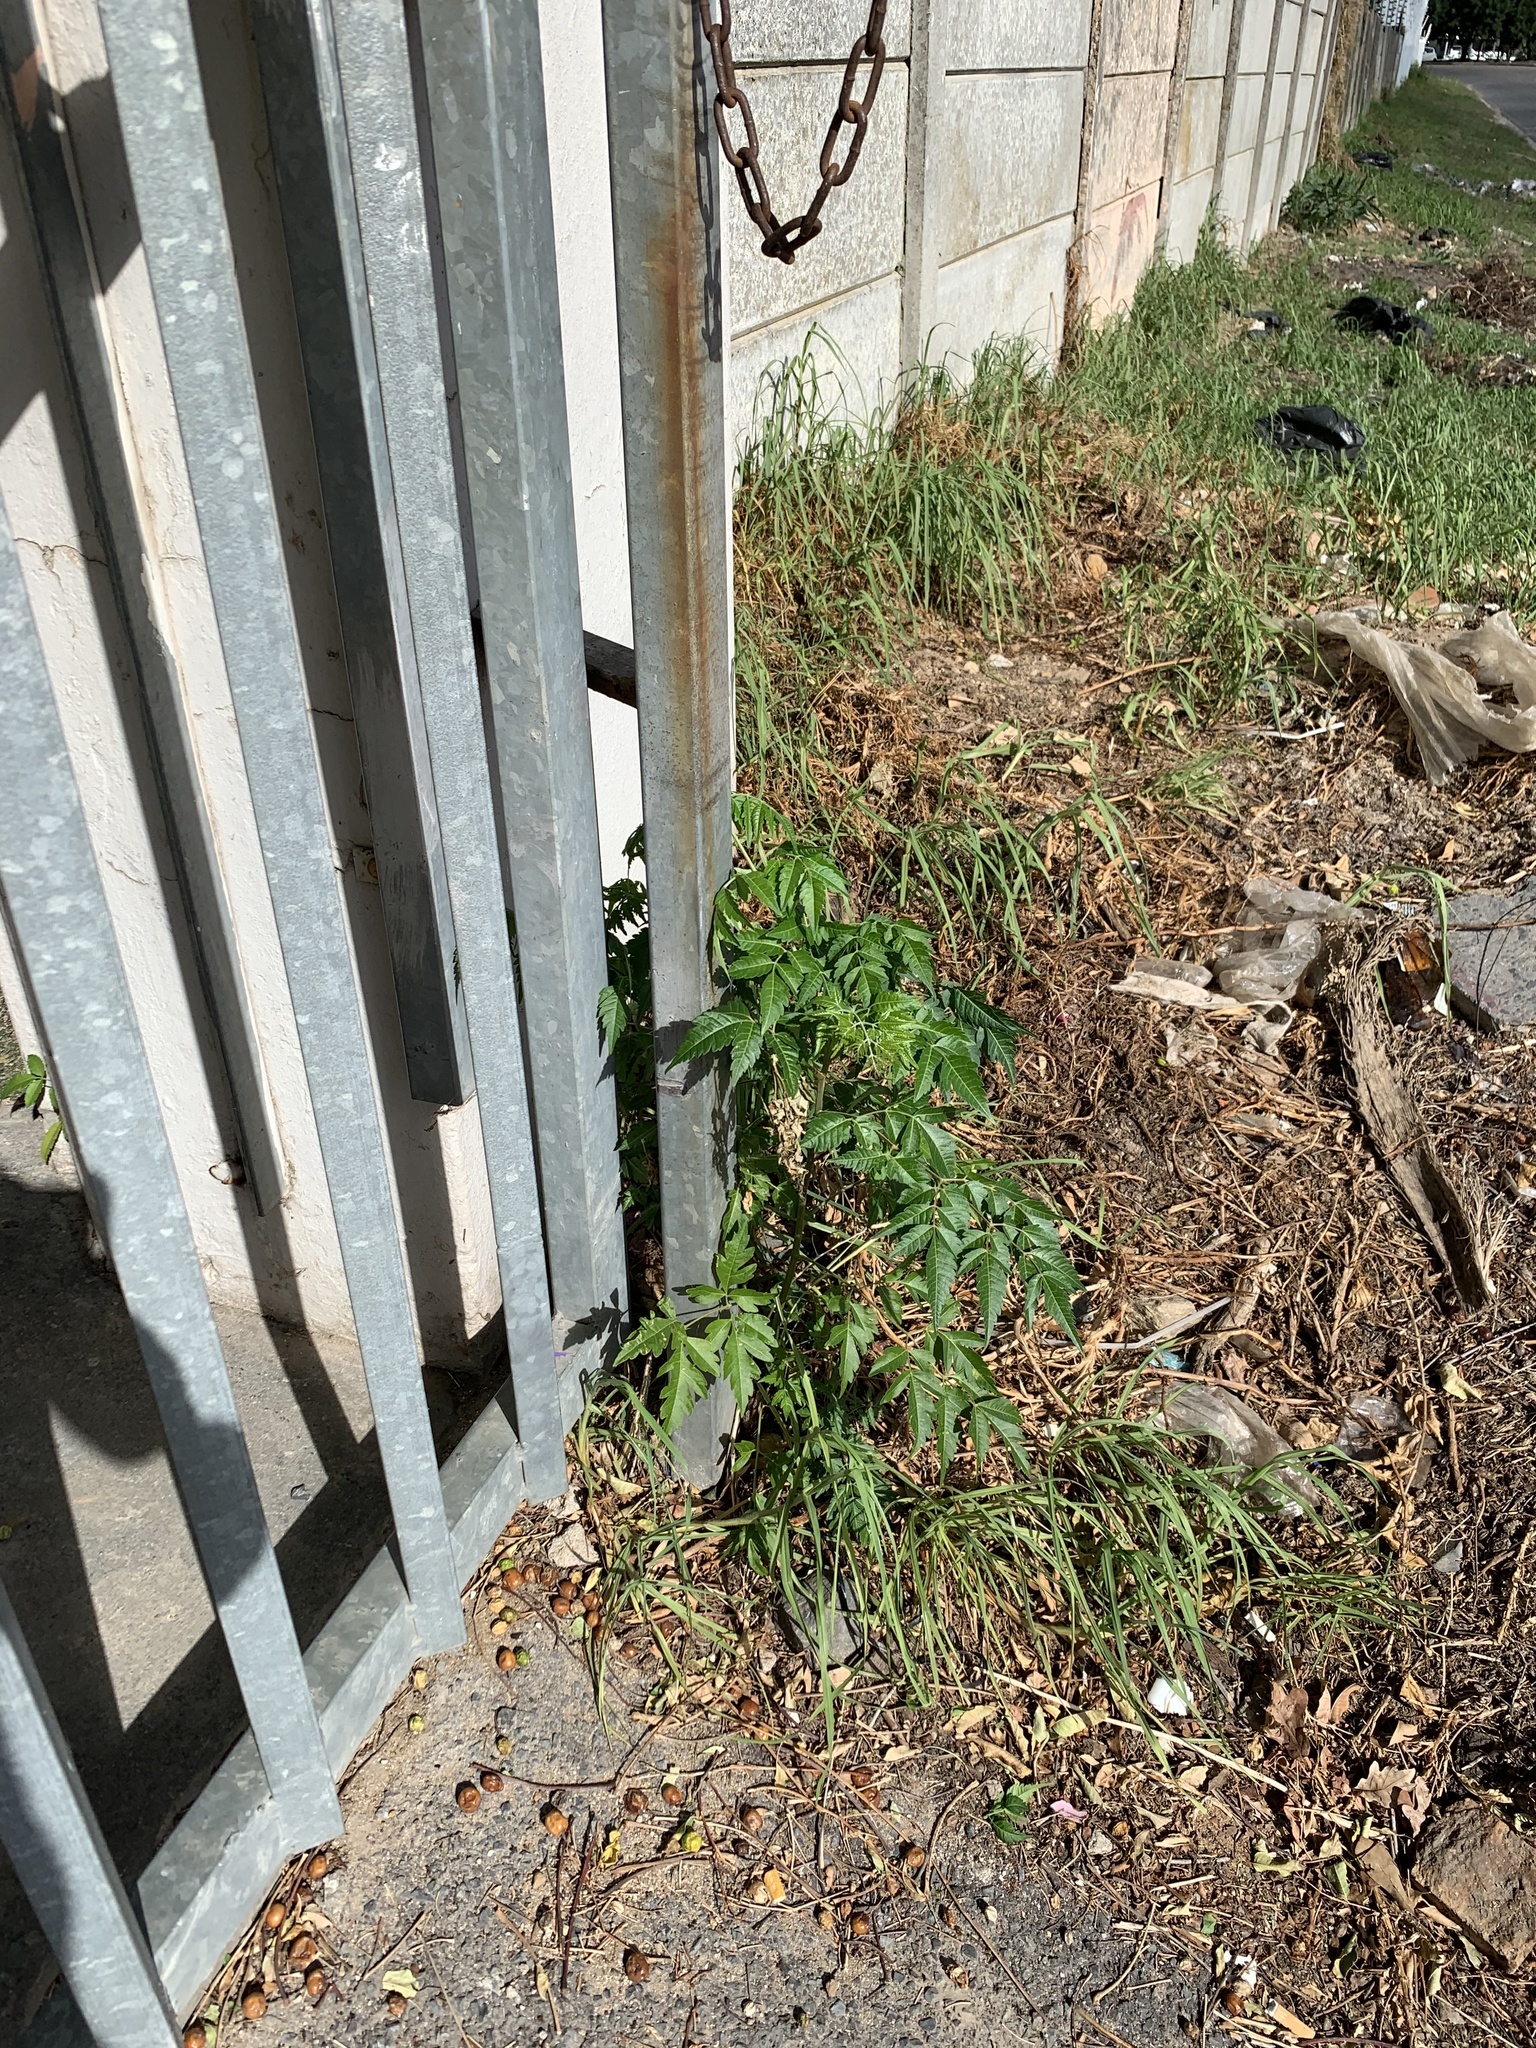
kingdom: Plantae
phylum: Tracheophyta
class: Magnoliopsida
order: Sapindales
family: Meliaceae
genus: Melia
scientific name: Melia azedarach
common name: Chinaberrytree
